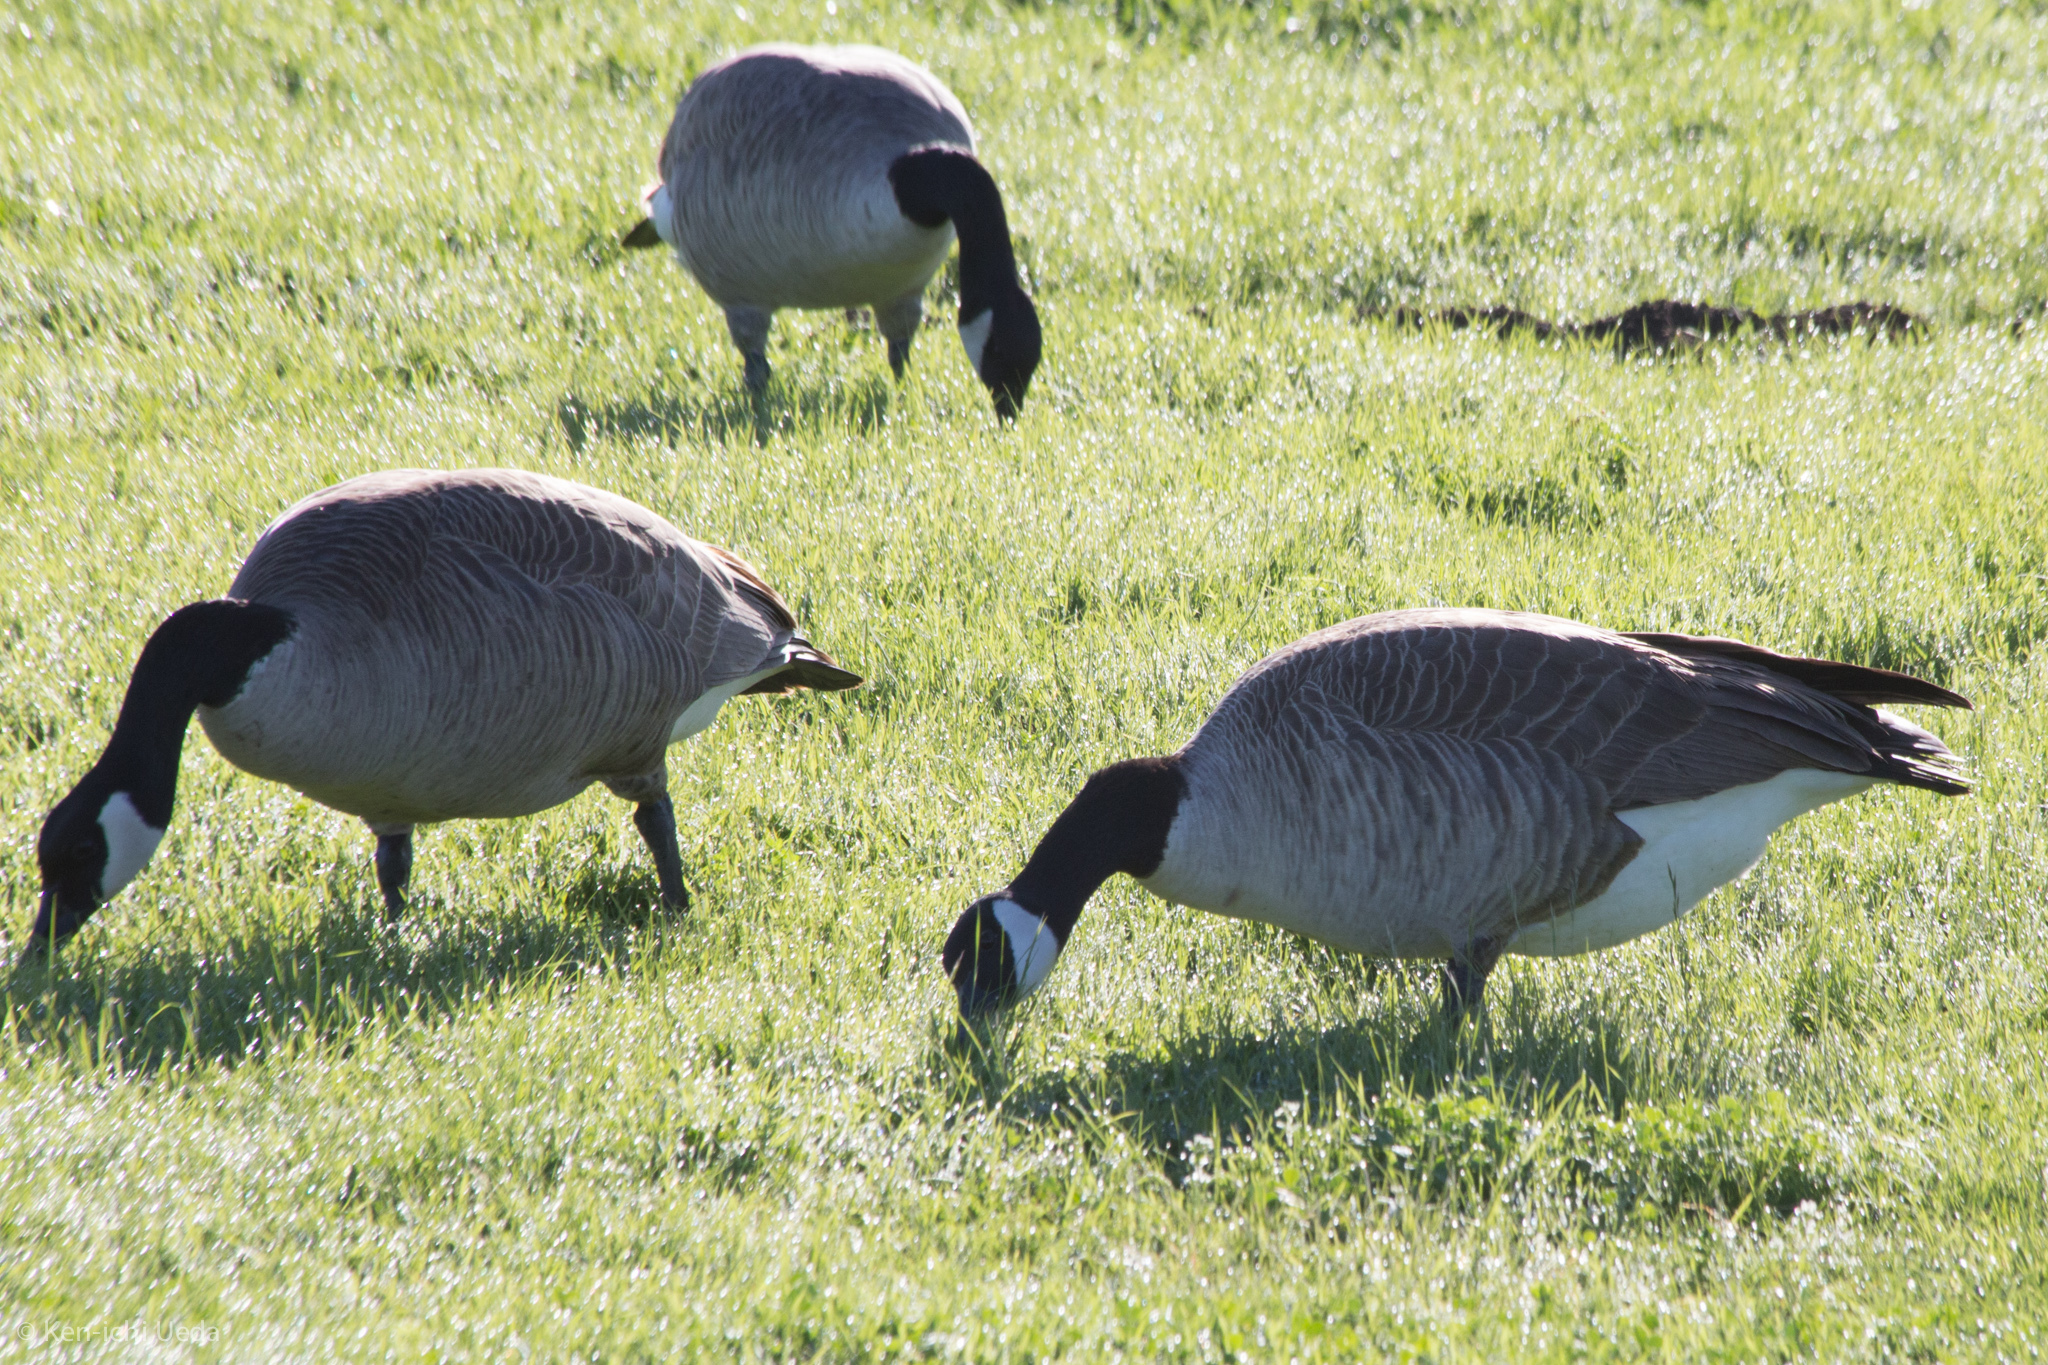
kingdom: Animalia
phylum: Chordata
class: Aves
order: Anseriformes
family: Anatidae
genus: Branta
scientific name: Branta canadensis
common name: Canada goose
